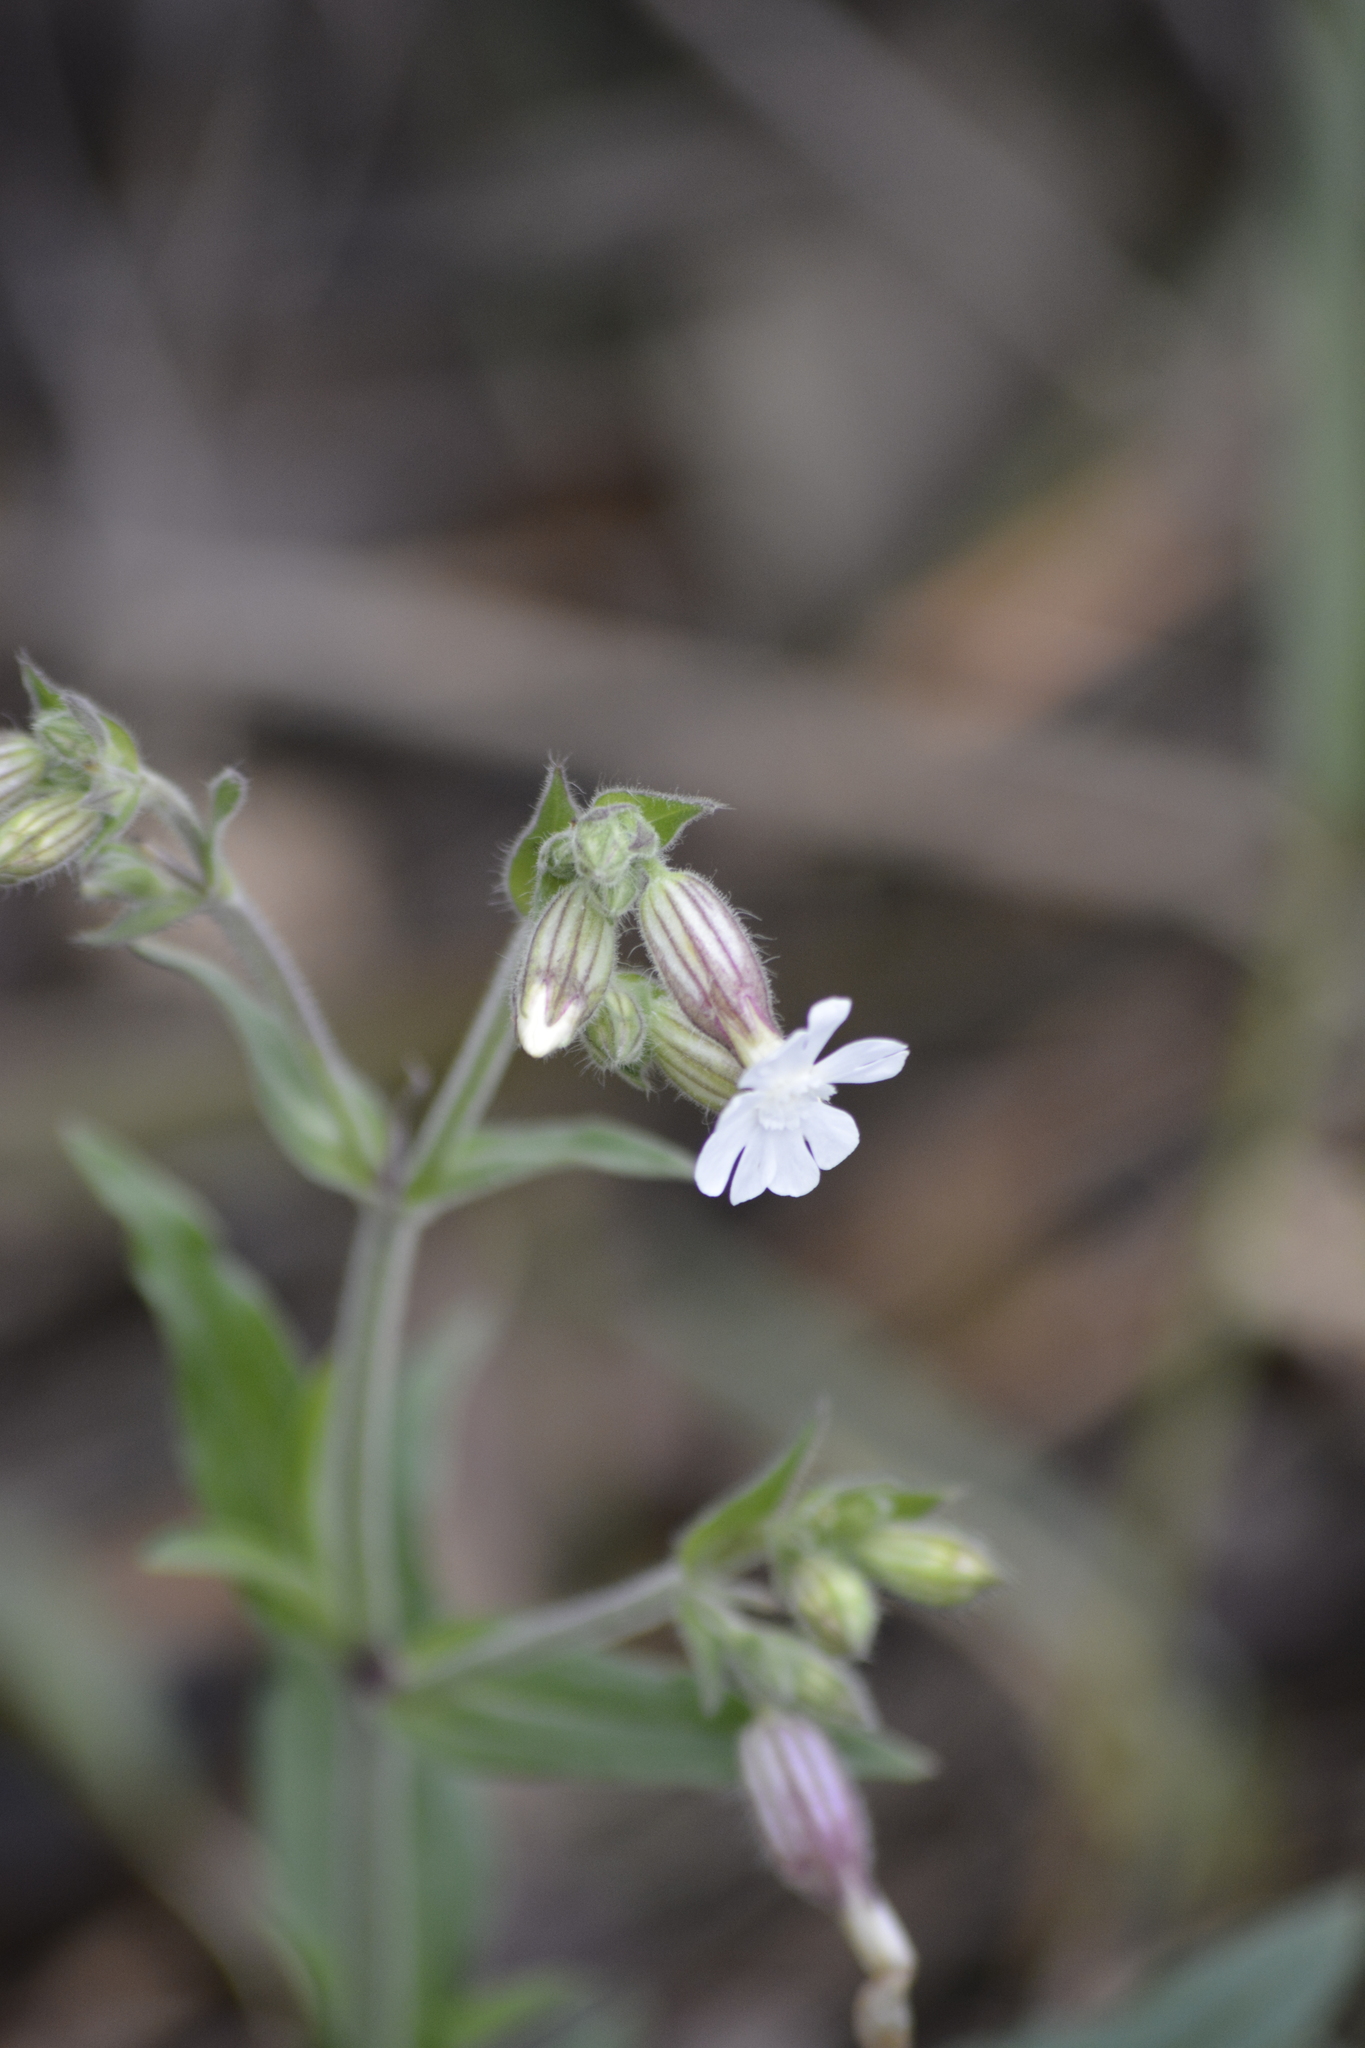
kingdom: Plantae
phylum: Tracheophyta
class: Magnoliopsida
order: Caryophyllales
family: Caryophyllaceae
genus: Silene
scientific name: Silene latifolia
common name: White campion
